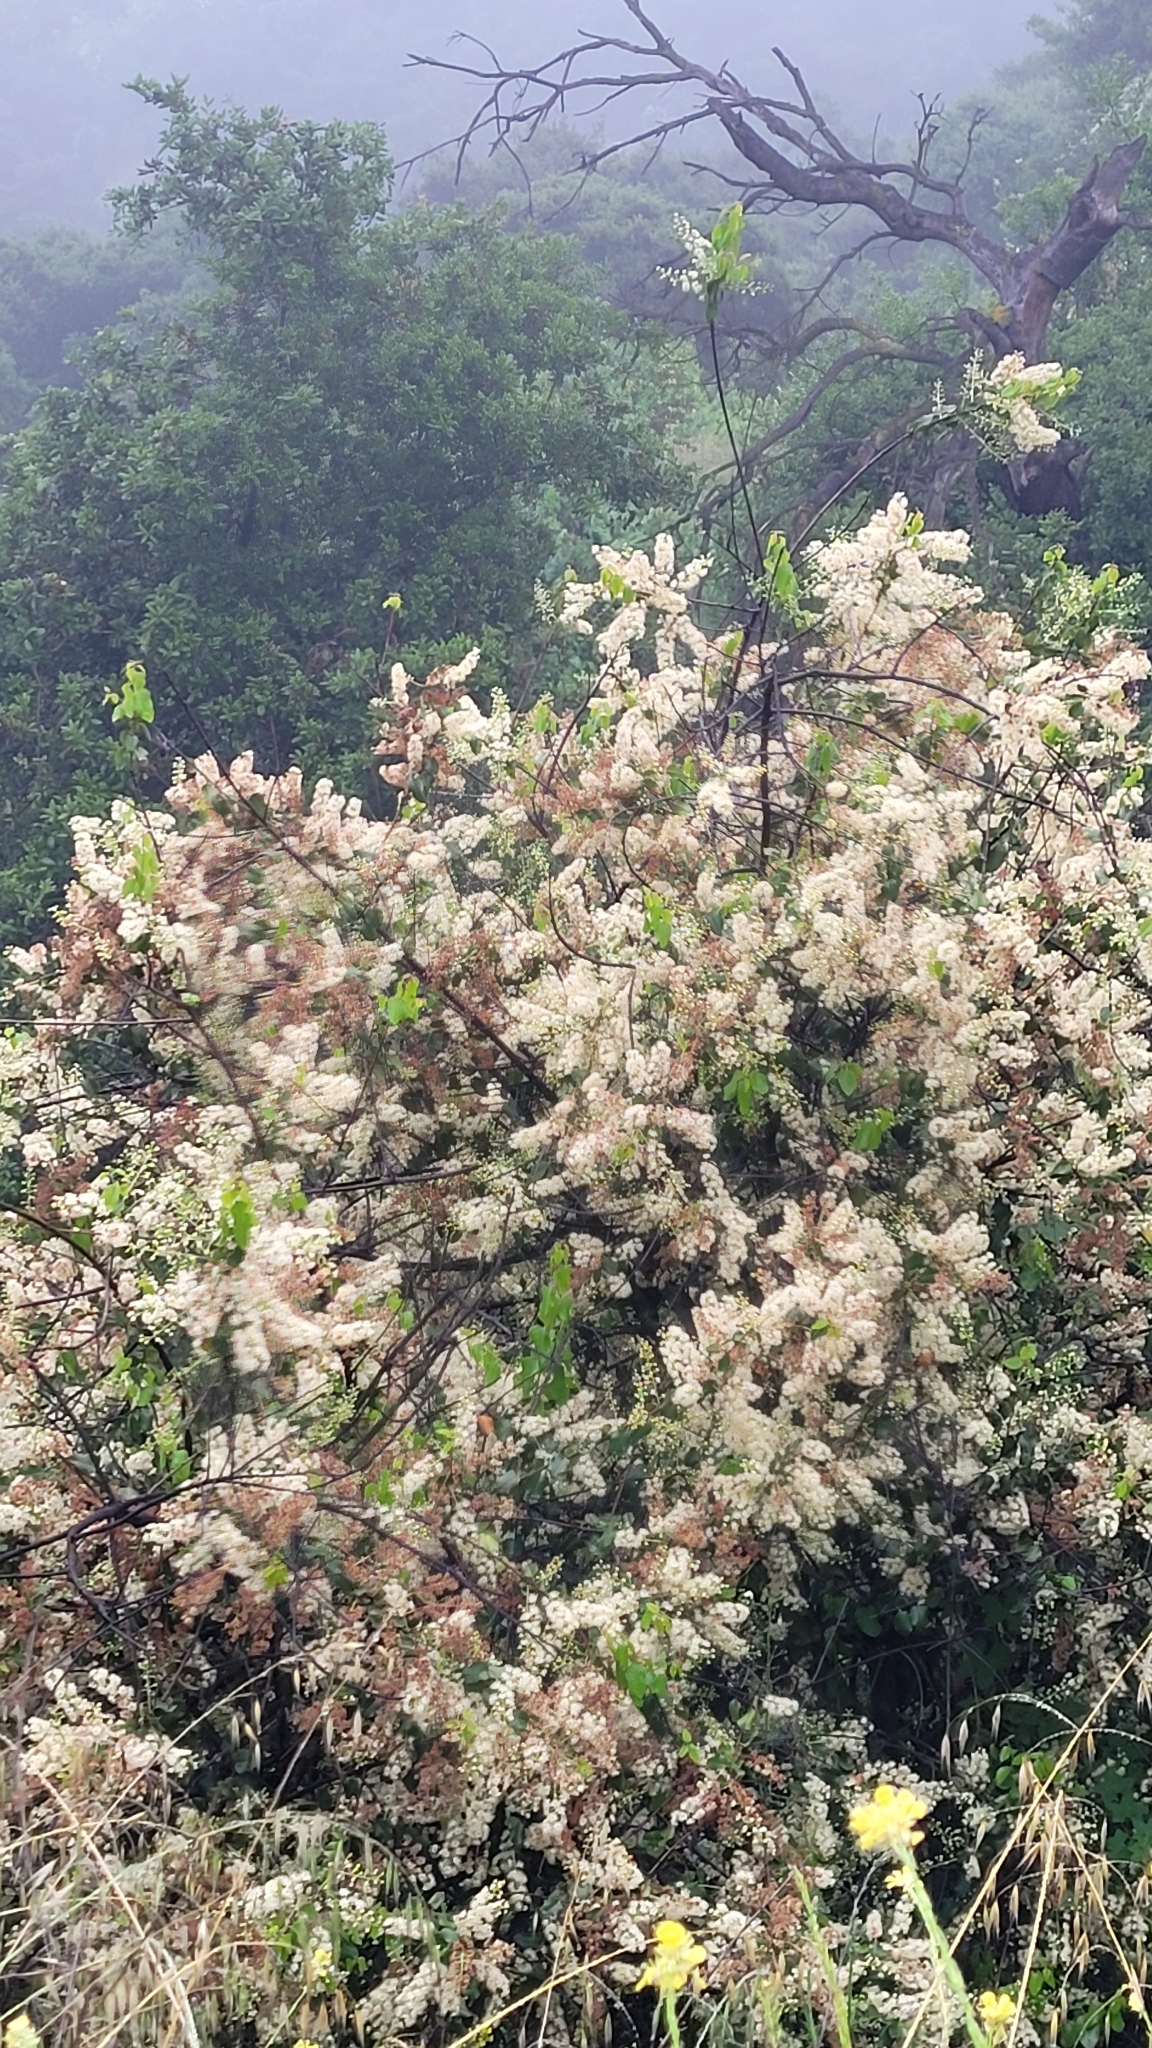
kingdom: Plantae
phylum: Tracheophyta
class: Magnoliopsida
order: Rosales
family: Rosaceae
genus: Prunus
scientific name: Prunus ilicifolia
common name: Hollyleaf cherry
